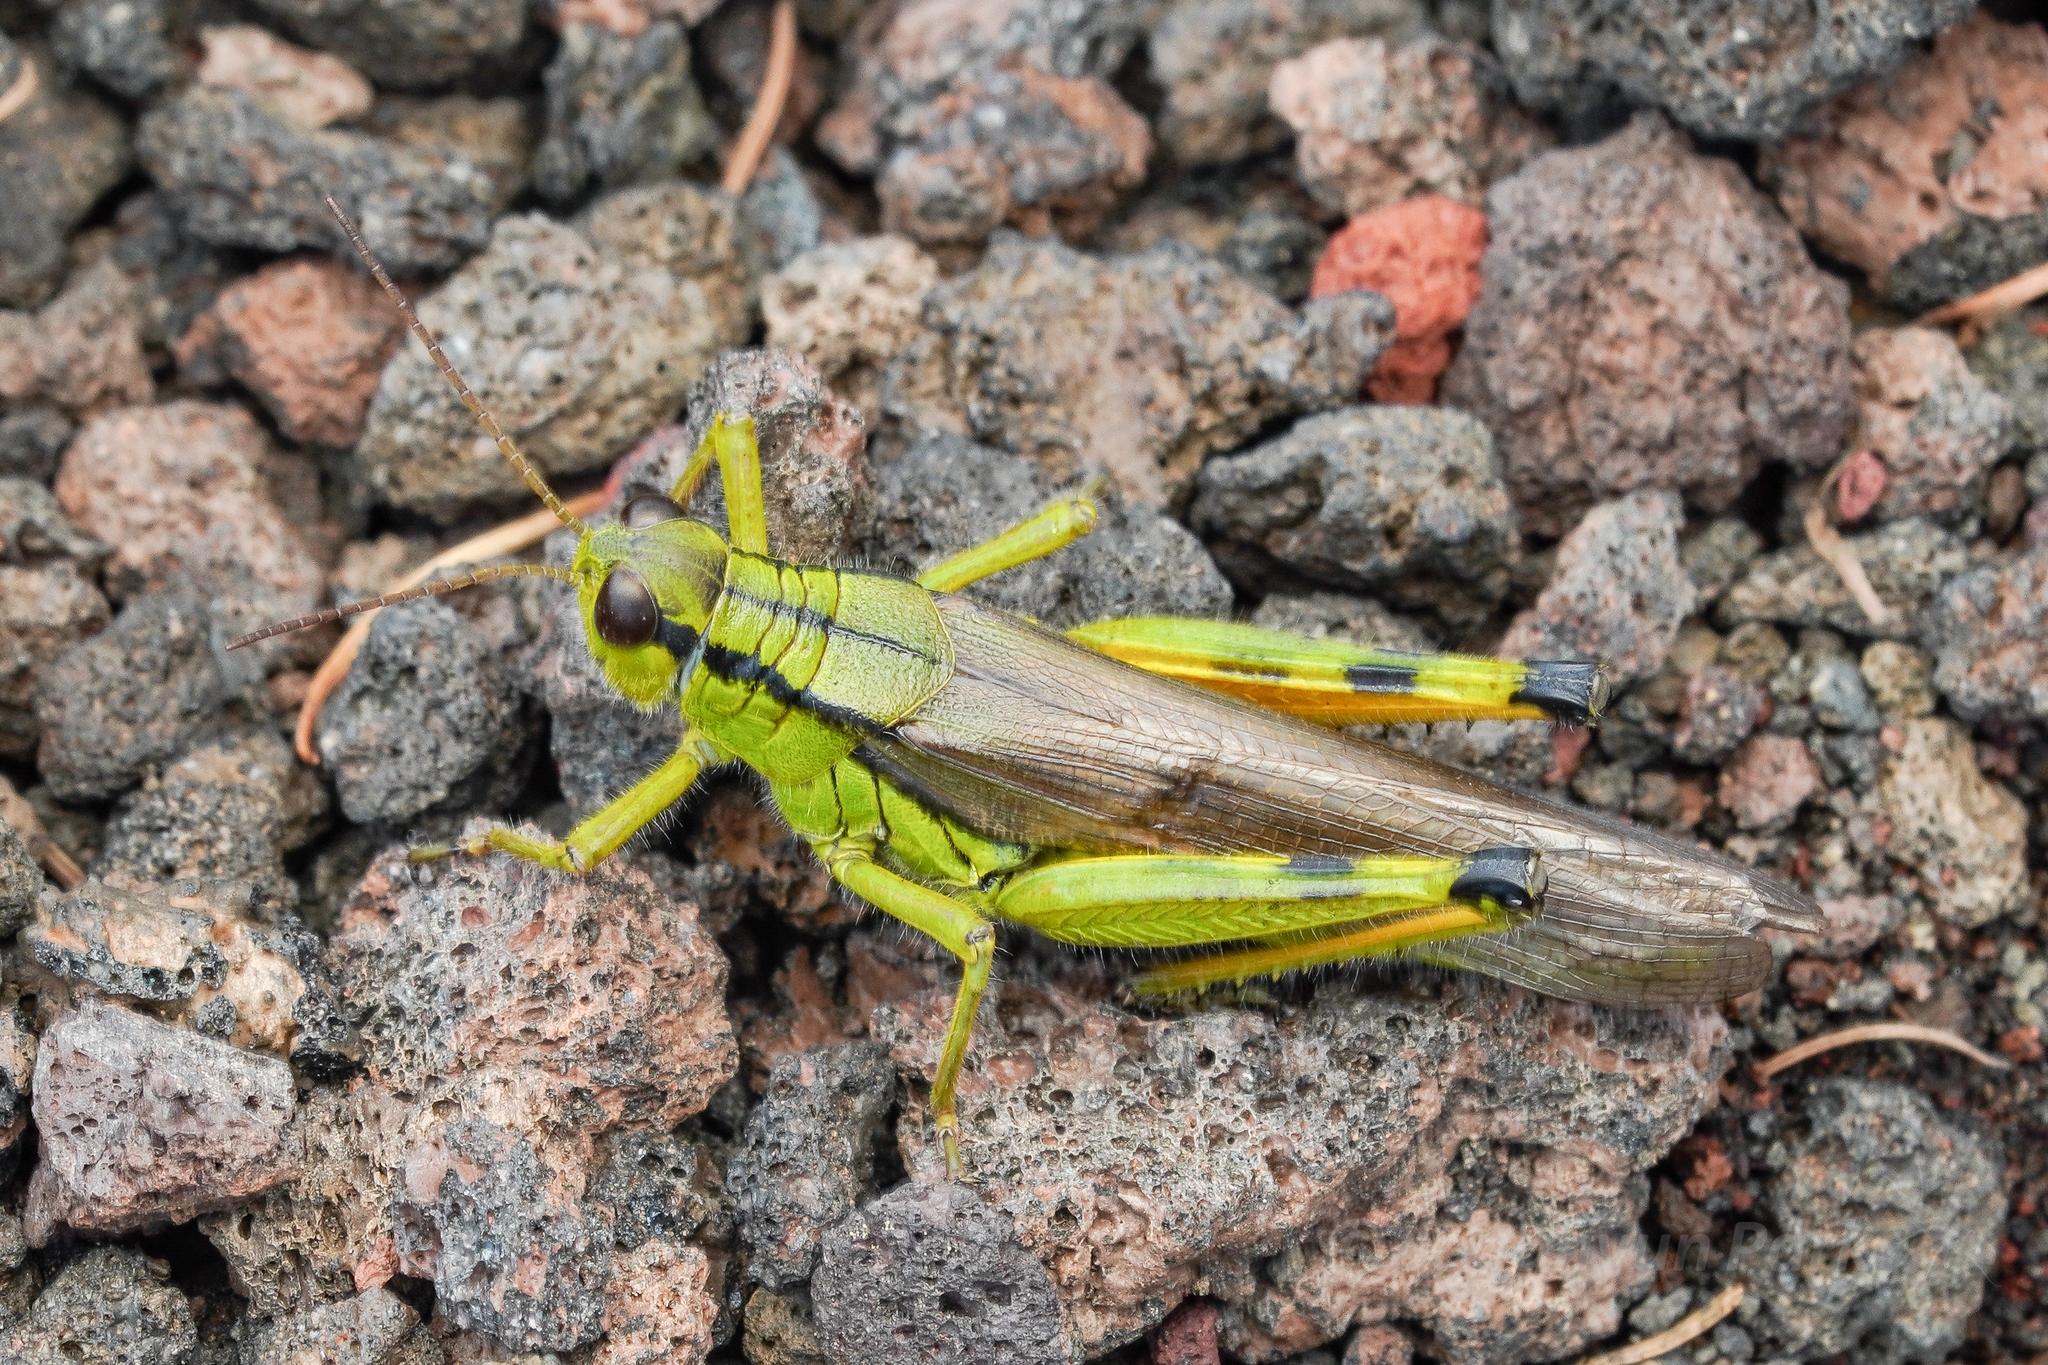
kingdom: Animalia
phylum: Arthropoda
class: Insecta
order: Orthoptera
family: Acrididae
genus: Confusacris
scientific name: Confusacris longipennis
